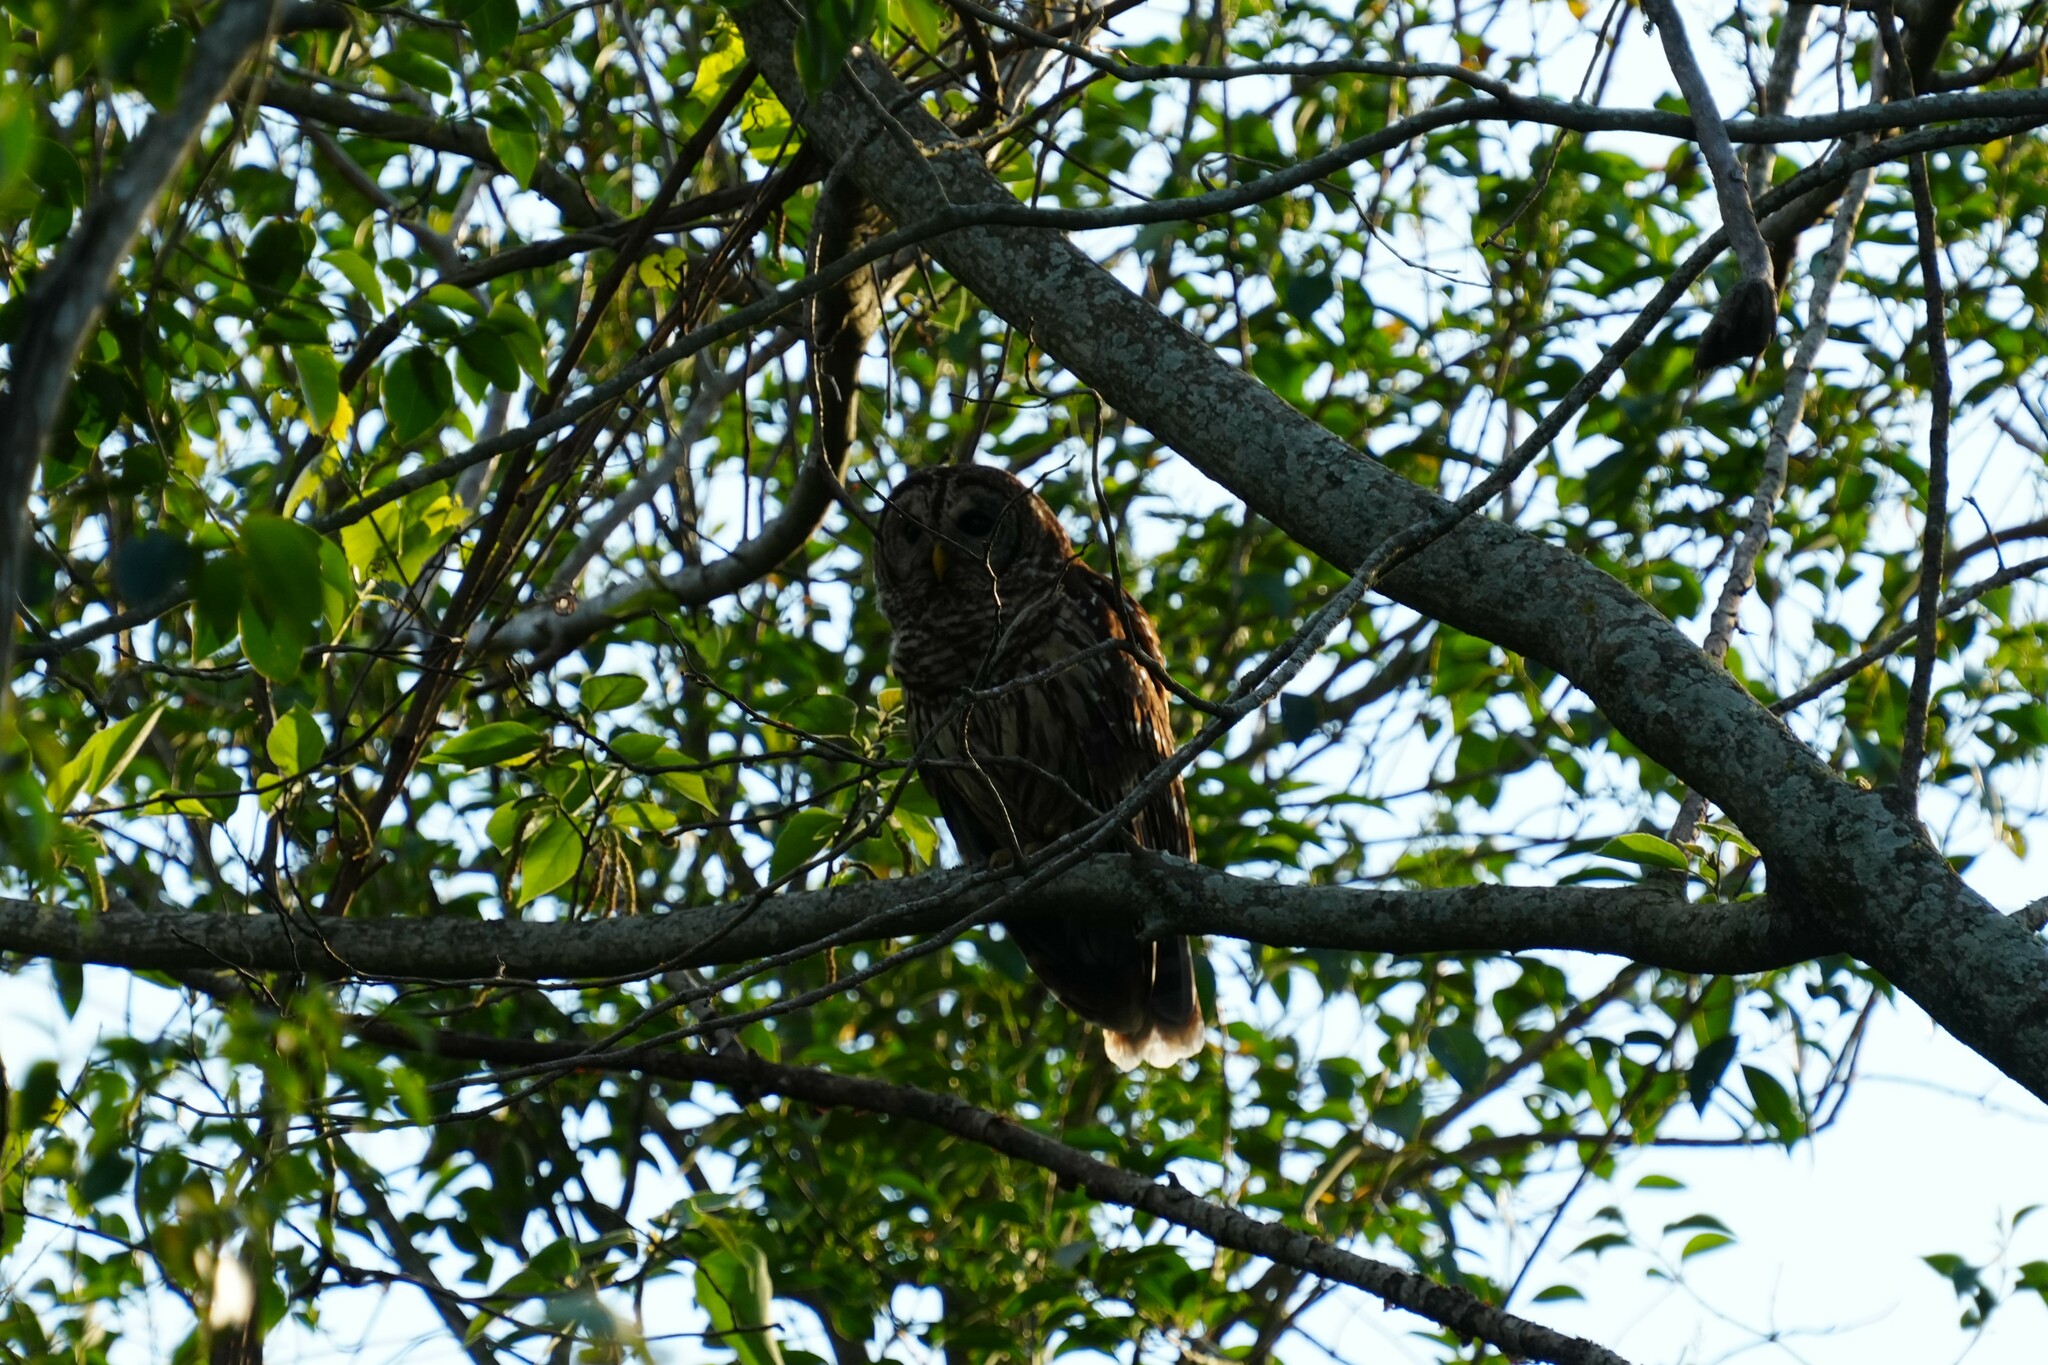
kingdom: Animalia
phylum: Chordata
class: Aves
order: Strigiformes
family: Strigidae
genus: Strix
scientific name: Strix varia
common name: Barred owl
